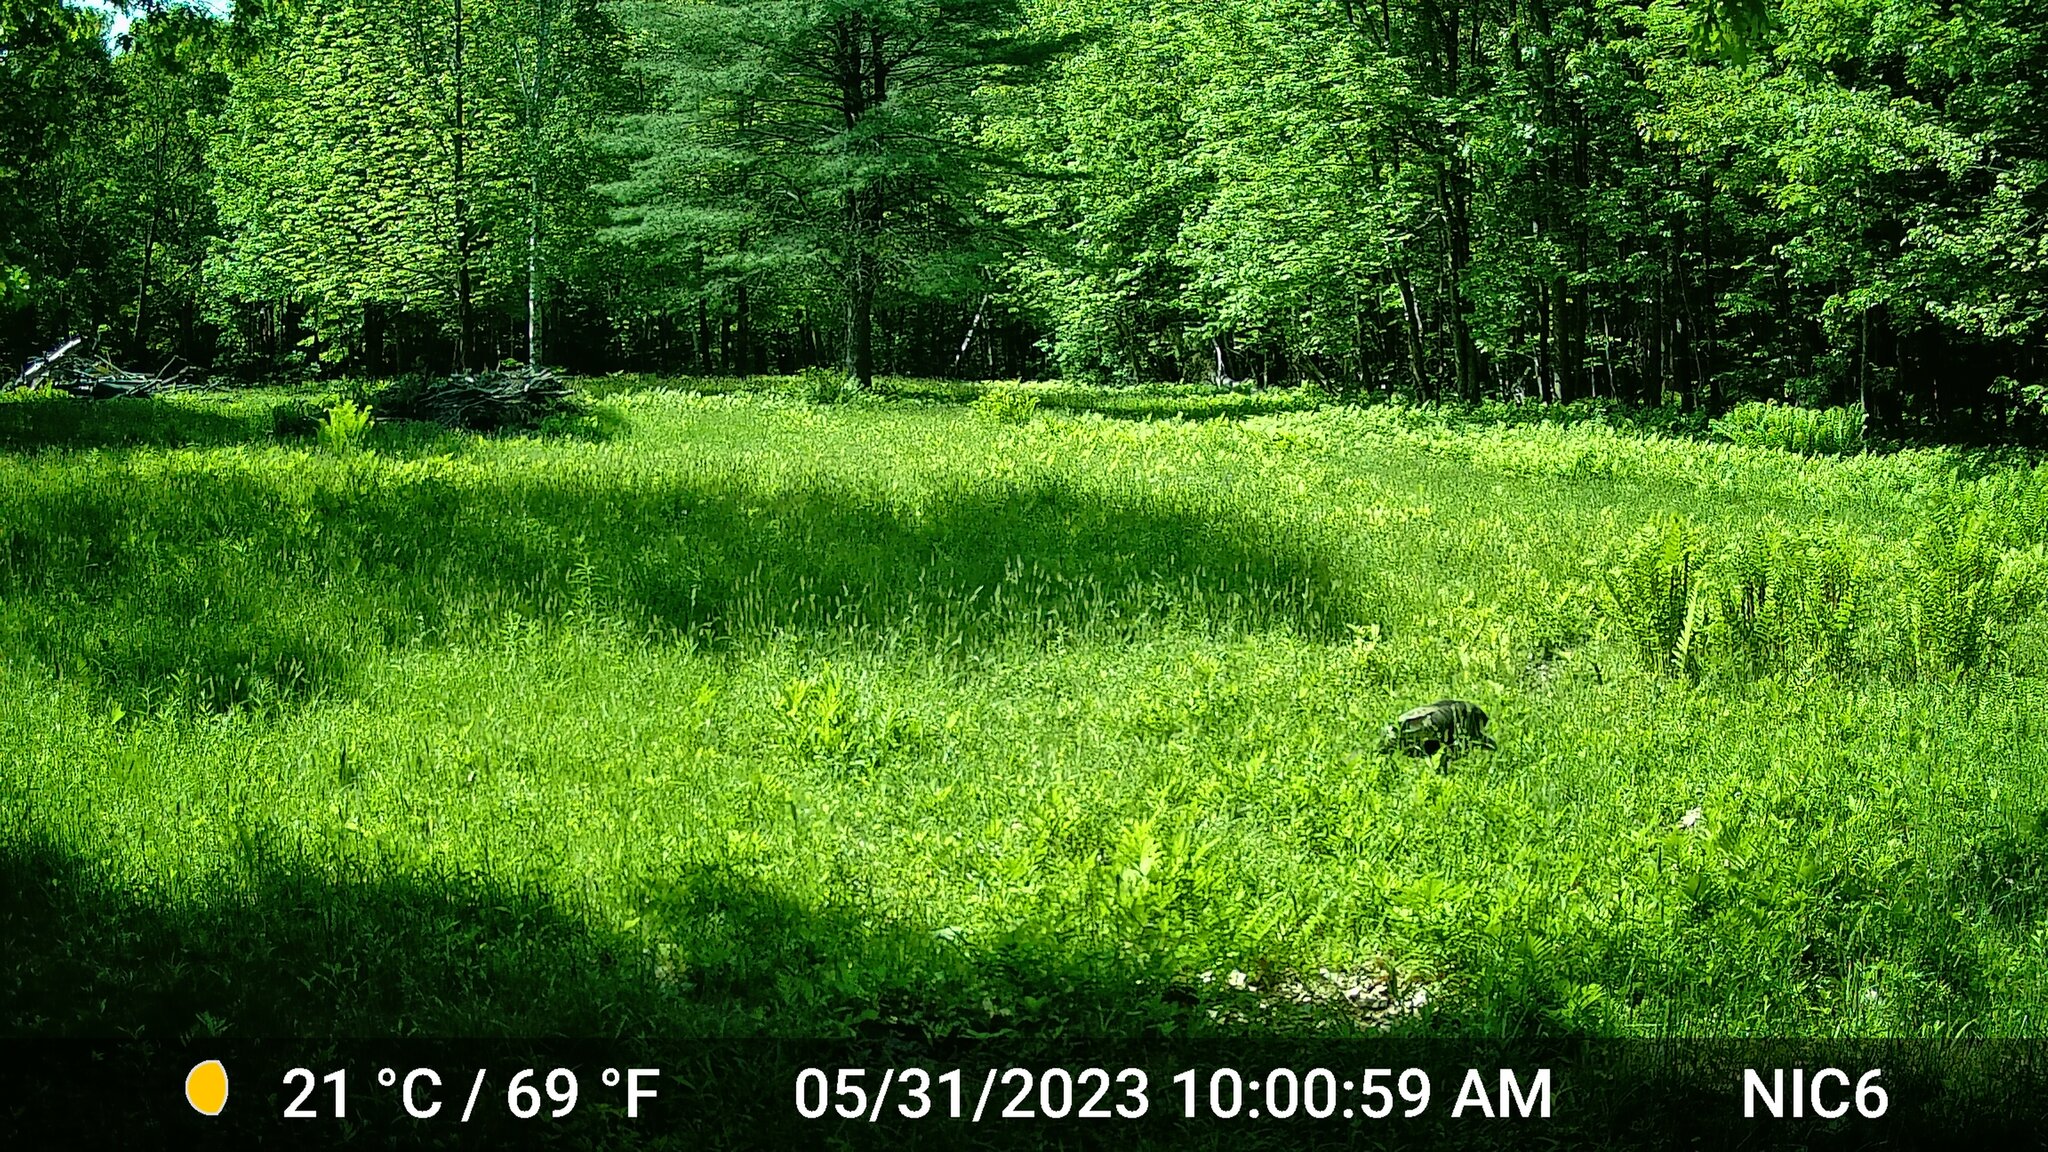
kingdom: Animalia
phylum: Chordata
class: Aves
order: Galliformes
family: Phasianidae
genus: Meleagris
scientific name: Meleagris gallopavo
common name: Wild turkey
